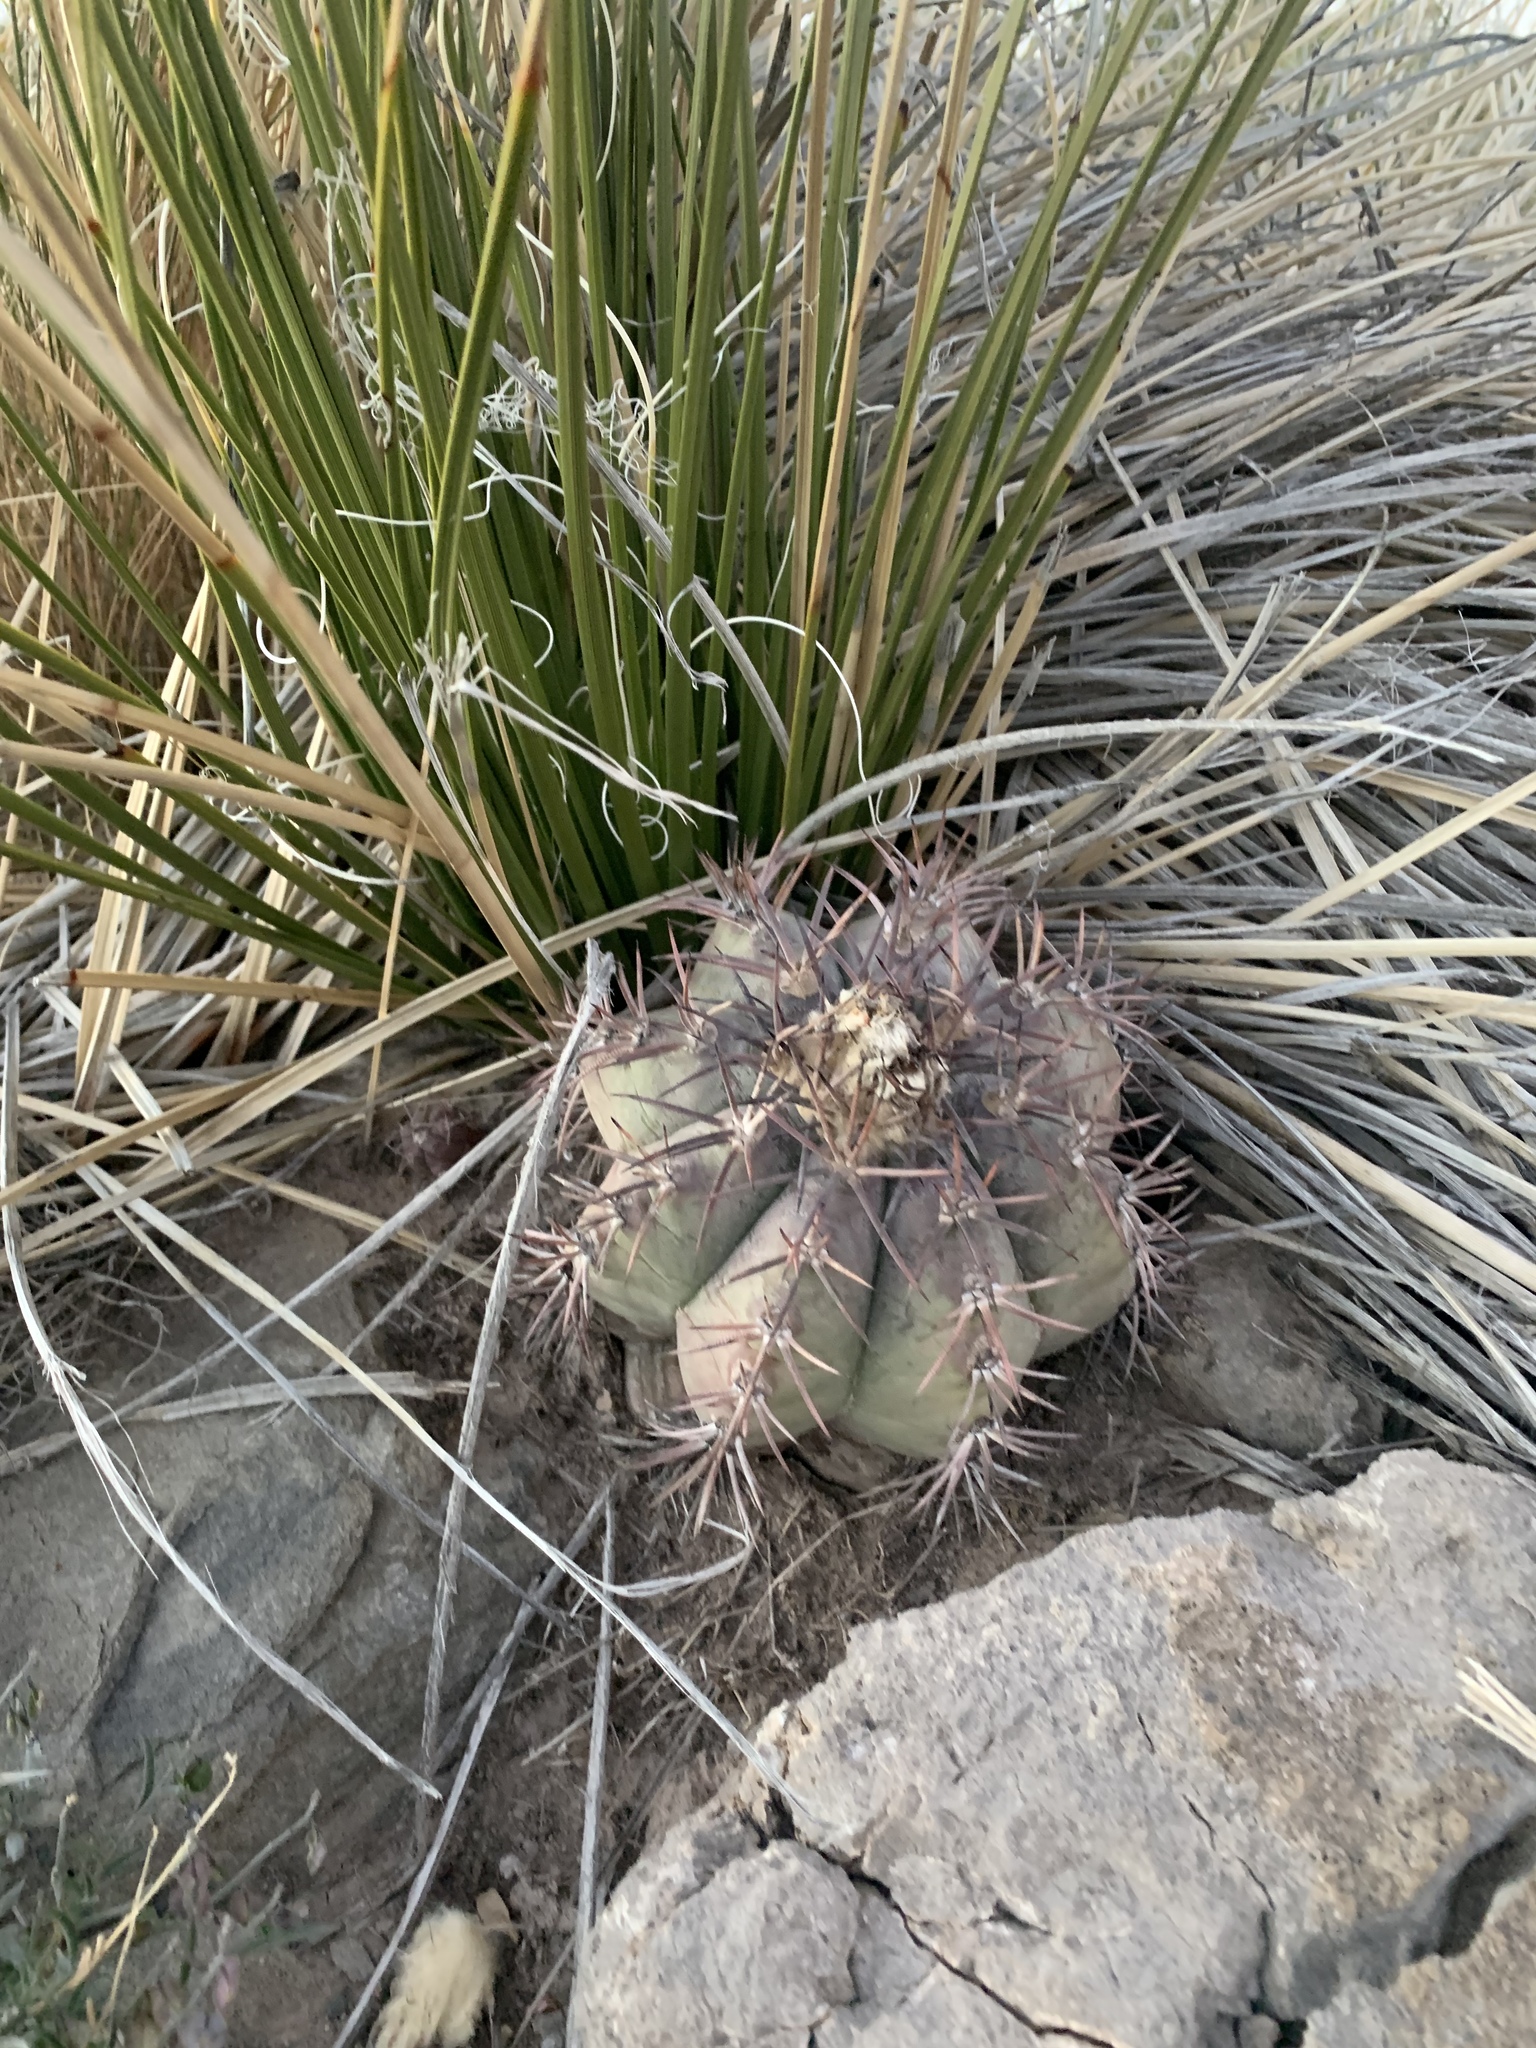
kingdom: Plantae
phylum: Tracheophyta
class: Magnoliopsida
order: Caryophyllales
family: Cactaceae
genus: Echinocactus
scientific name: Echinocactus horizonthalonius
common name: Devilshead
